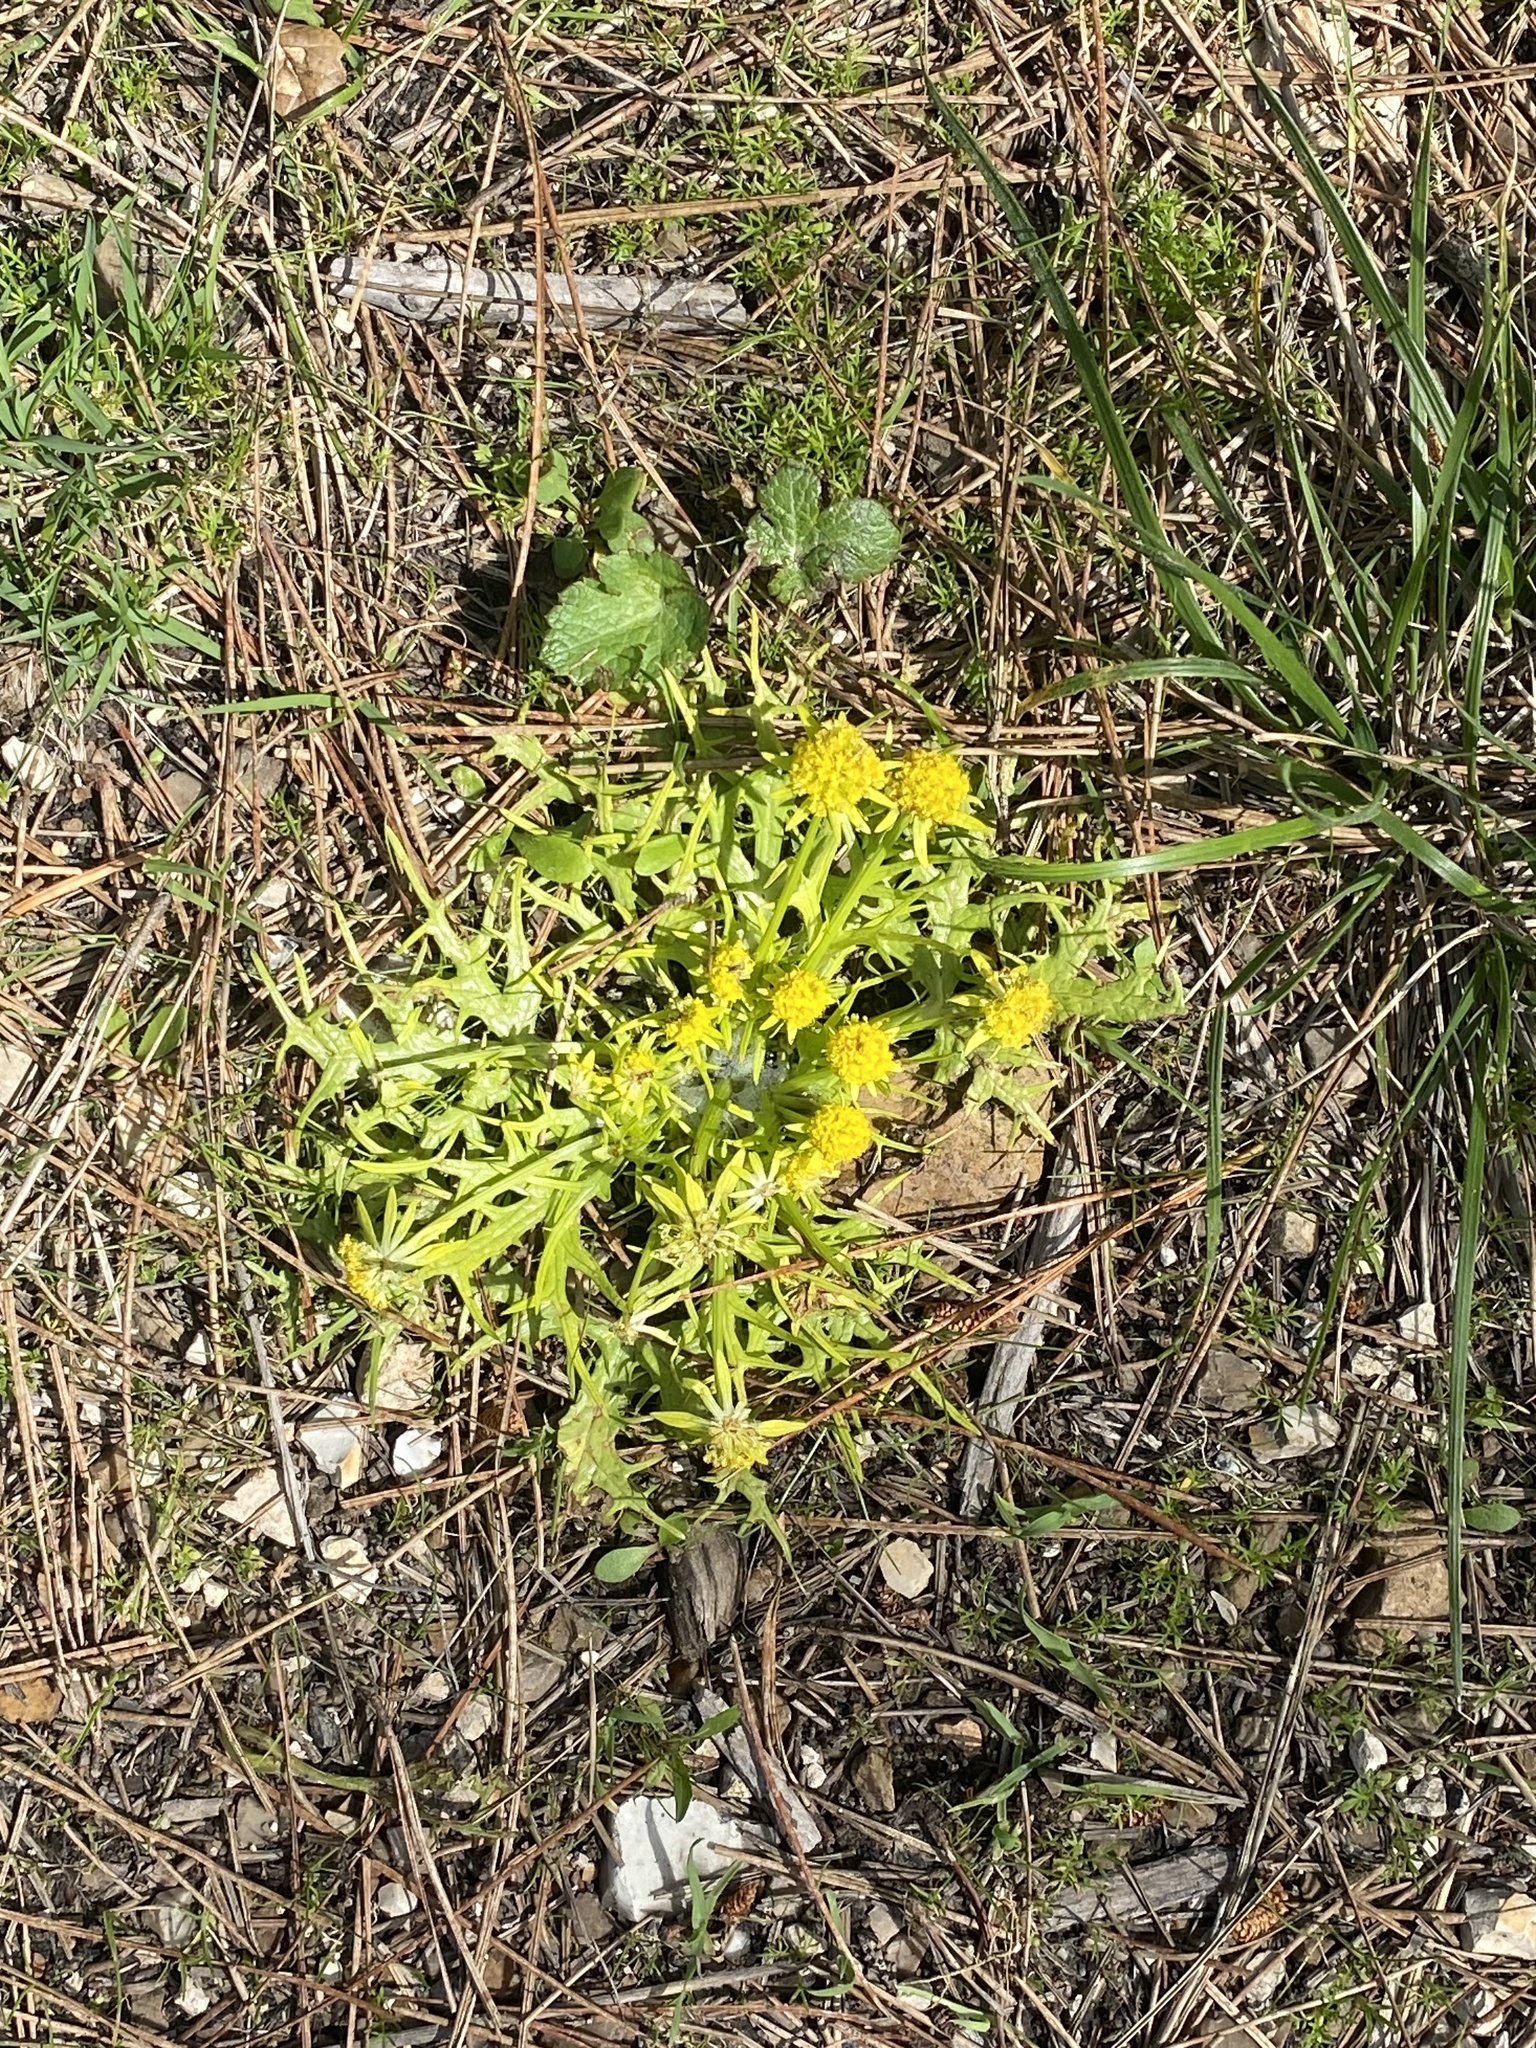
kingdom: Plantae
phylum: Tracheophyta
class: Magnoliopsida
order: Apiales
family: Apiaceae
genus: Sanicula
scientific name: Sanicula arctopoides
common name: Footsteps-of-spring
